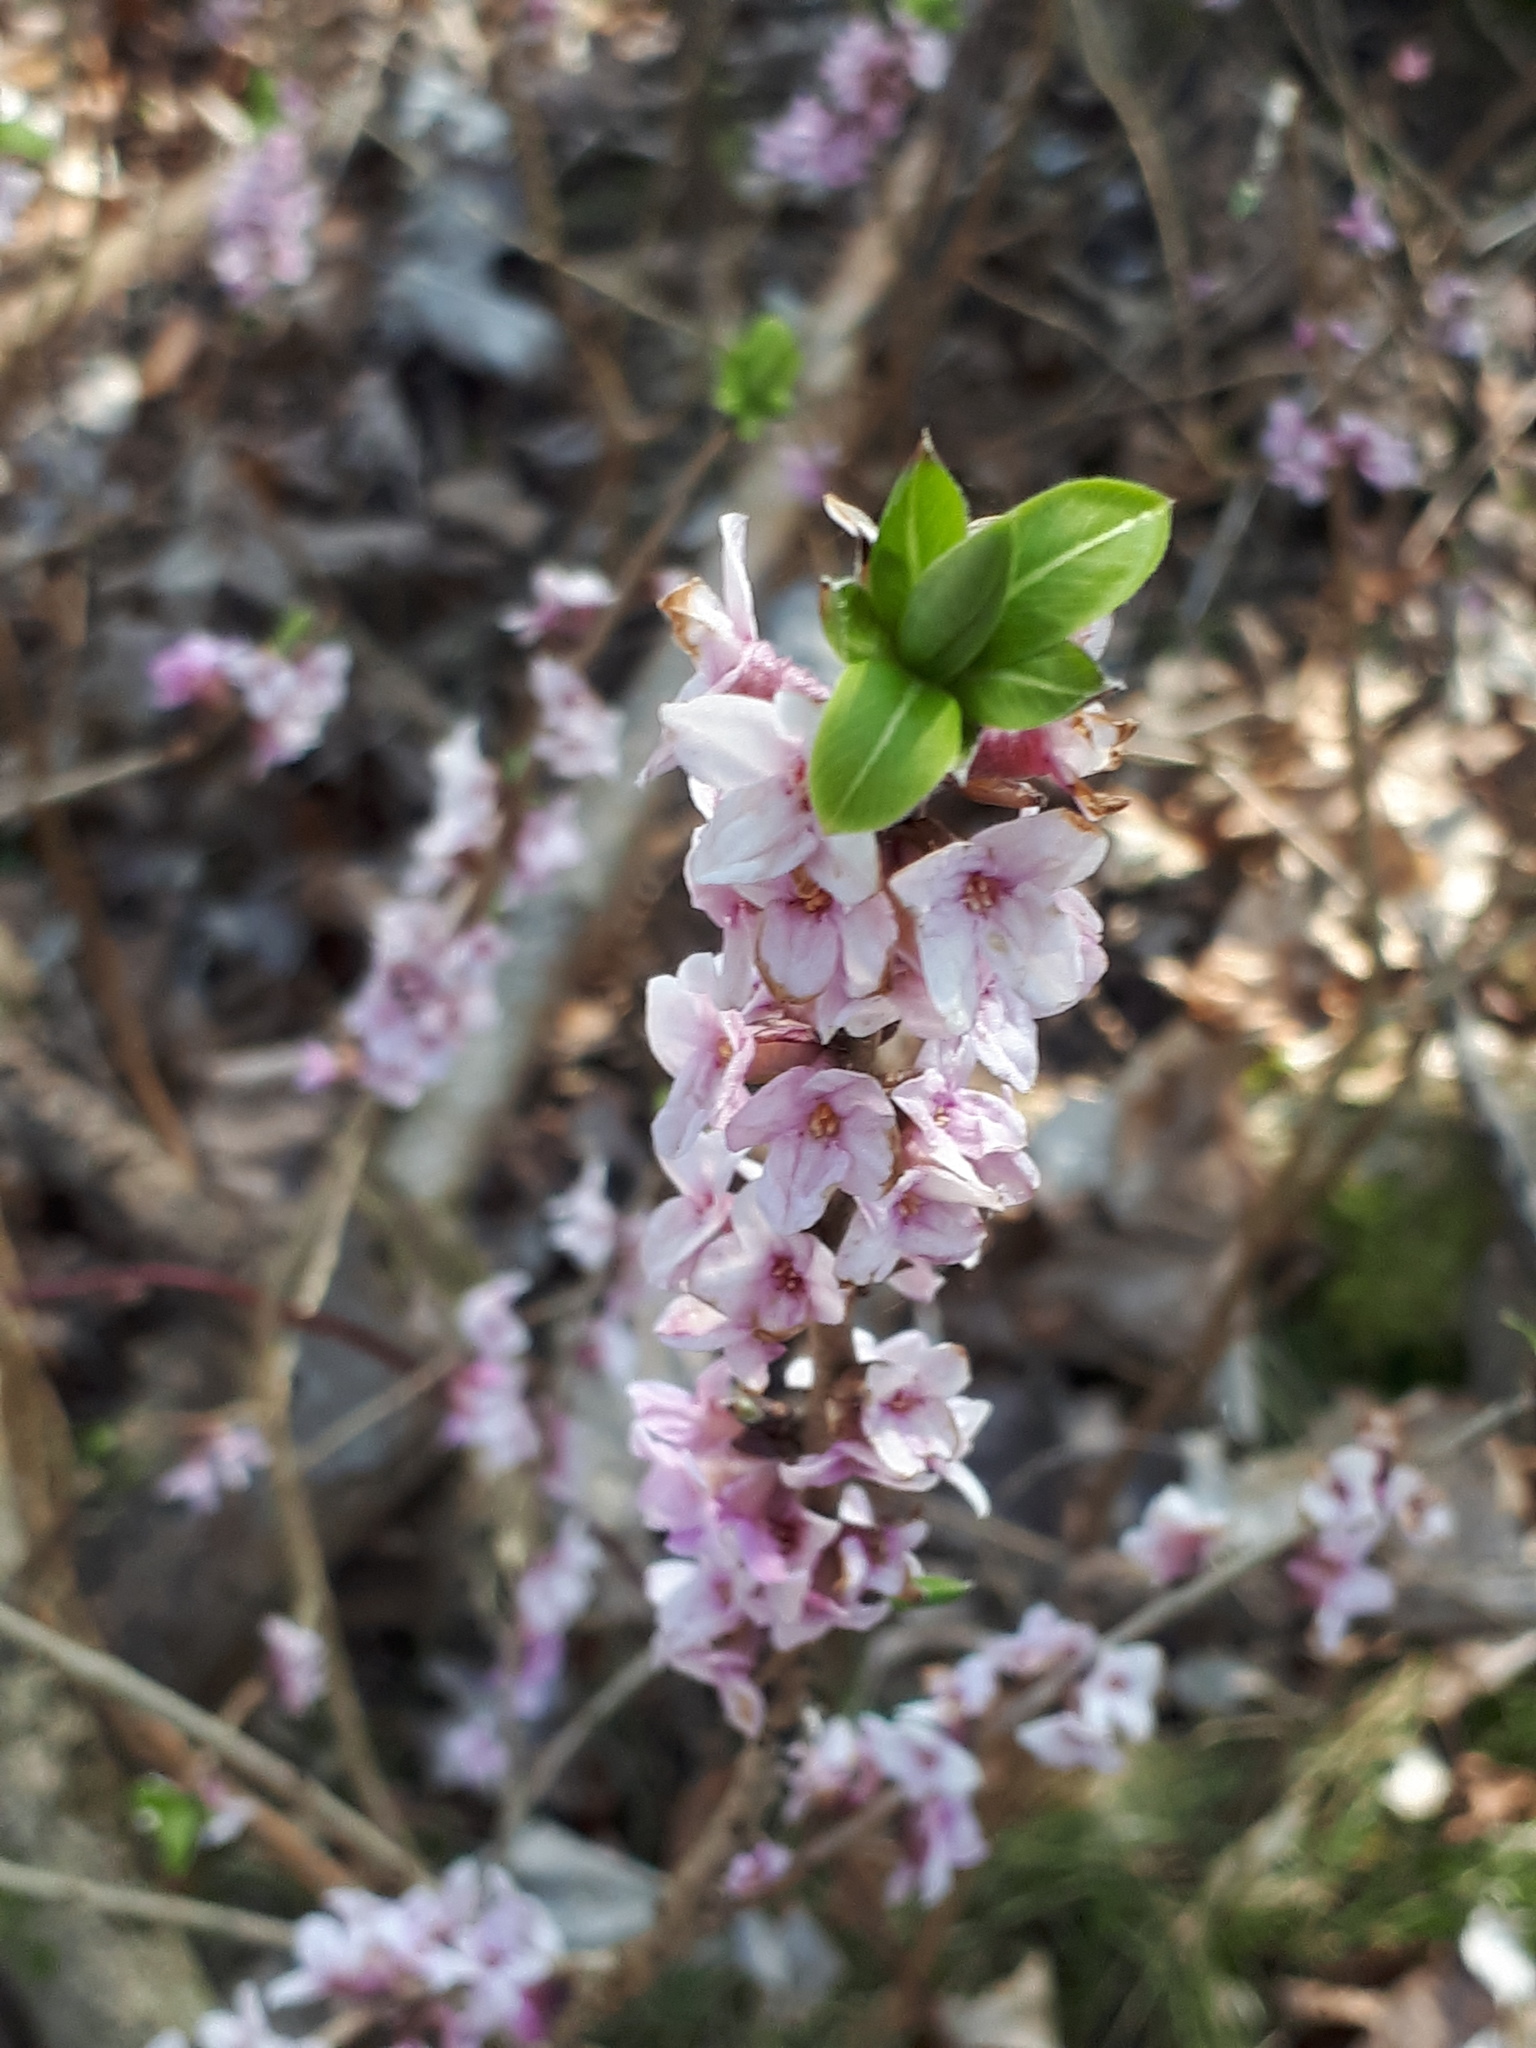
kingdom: Plantae
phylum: Tracheophyta
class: Magnoliopsida
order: Malvales
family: Thymelaeaceae
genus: Daphne
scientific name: Daphne mezereum
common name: Mezereon
